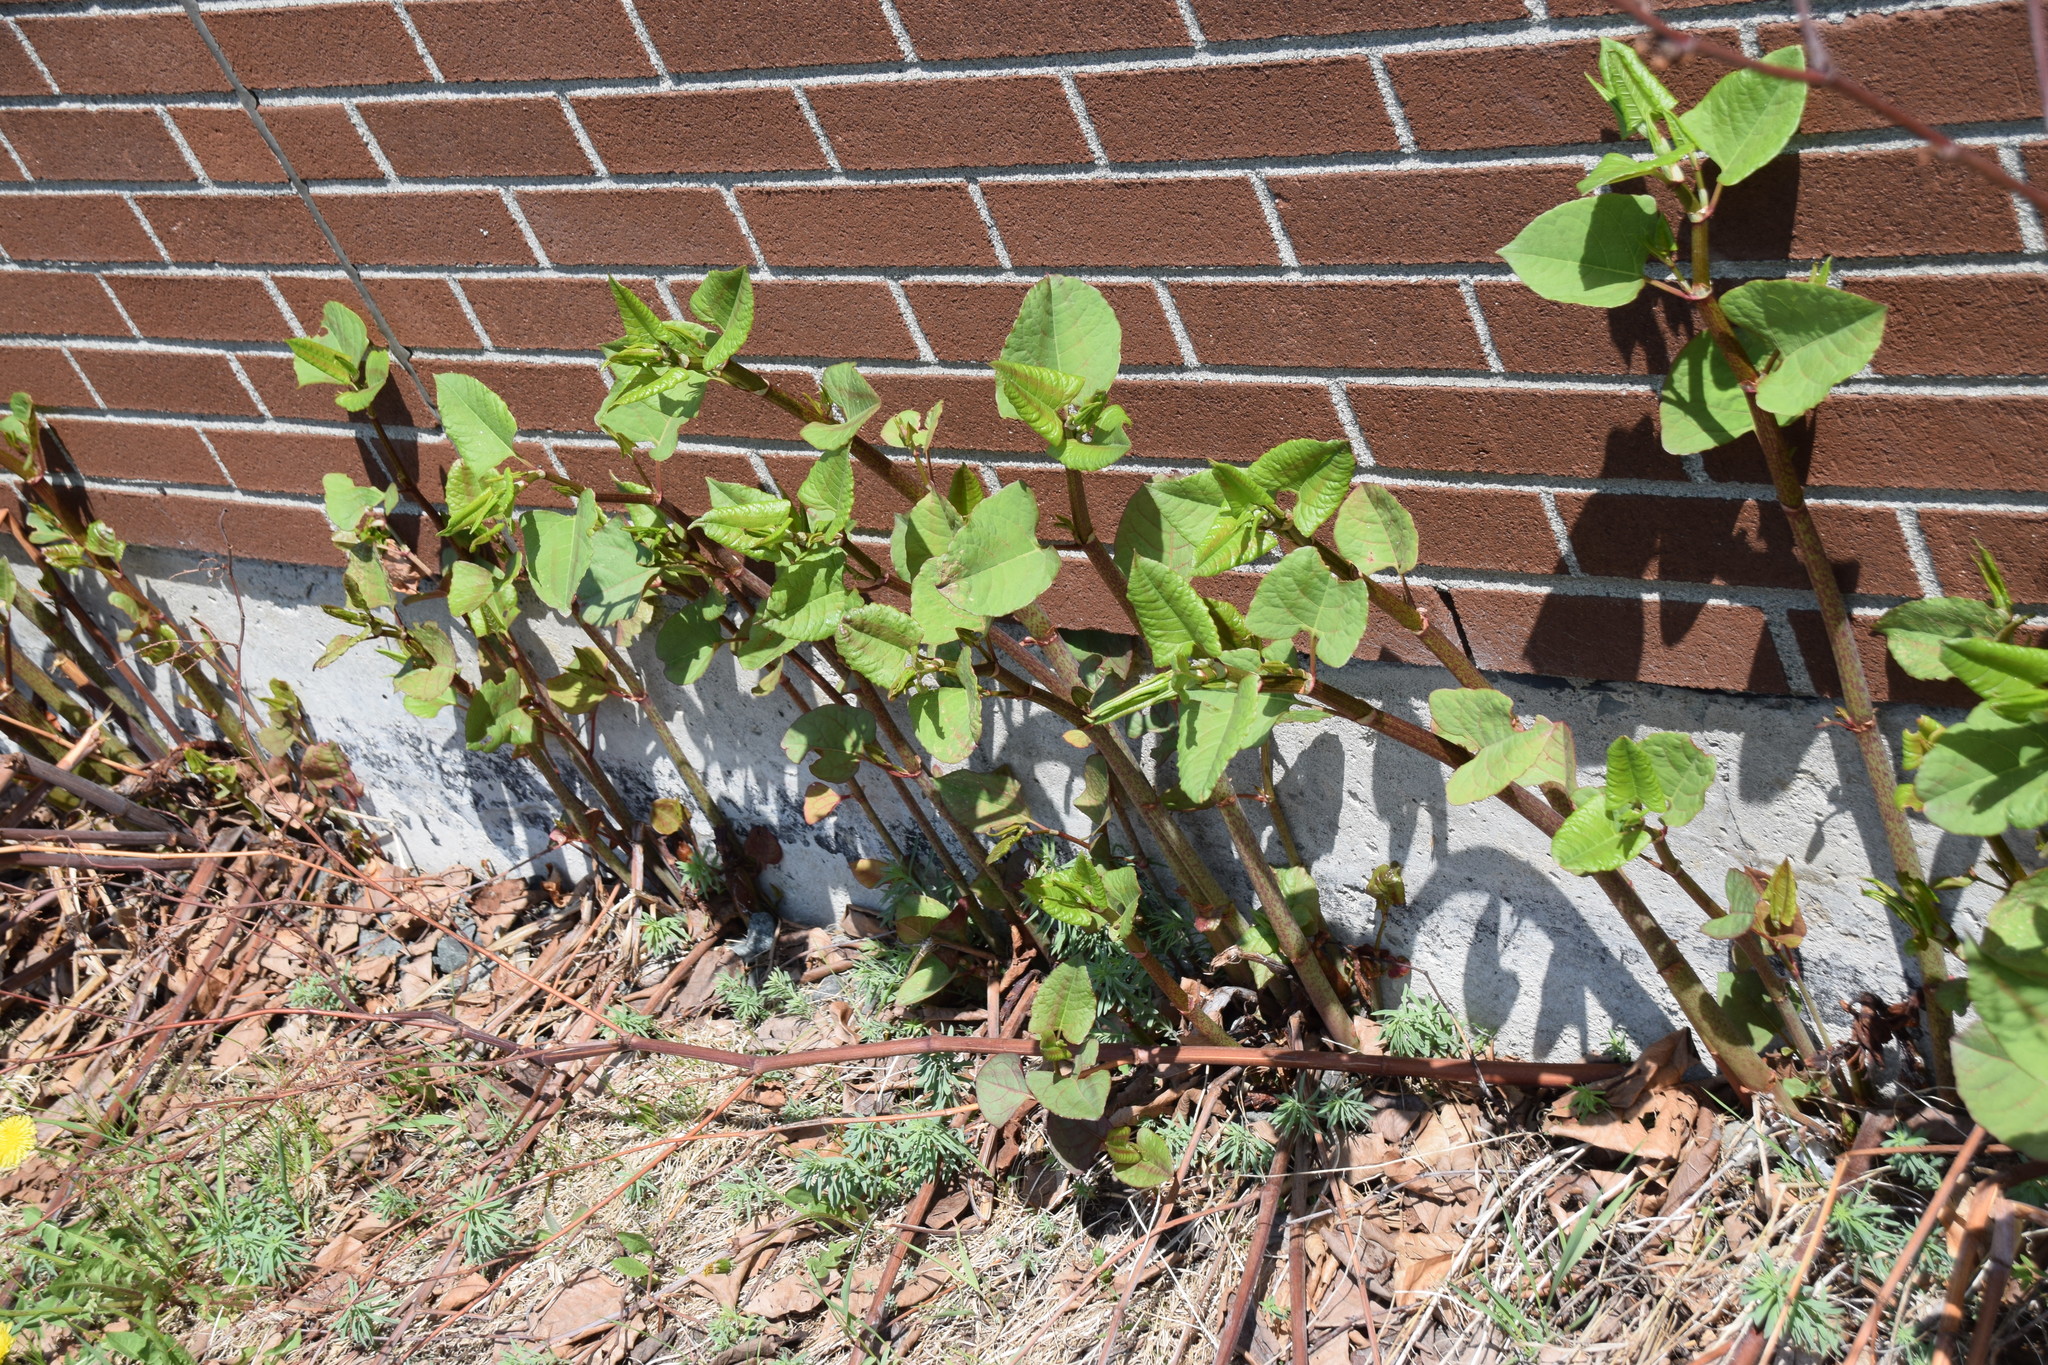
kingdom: Plantae
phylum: Tracheophyta
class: Magnoliopsida
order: Caryophyllales
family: Polygonaceae
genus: Reynoutria
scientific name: Reynoutria japonica
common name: Japanese knotweed
